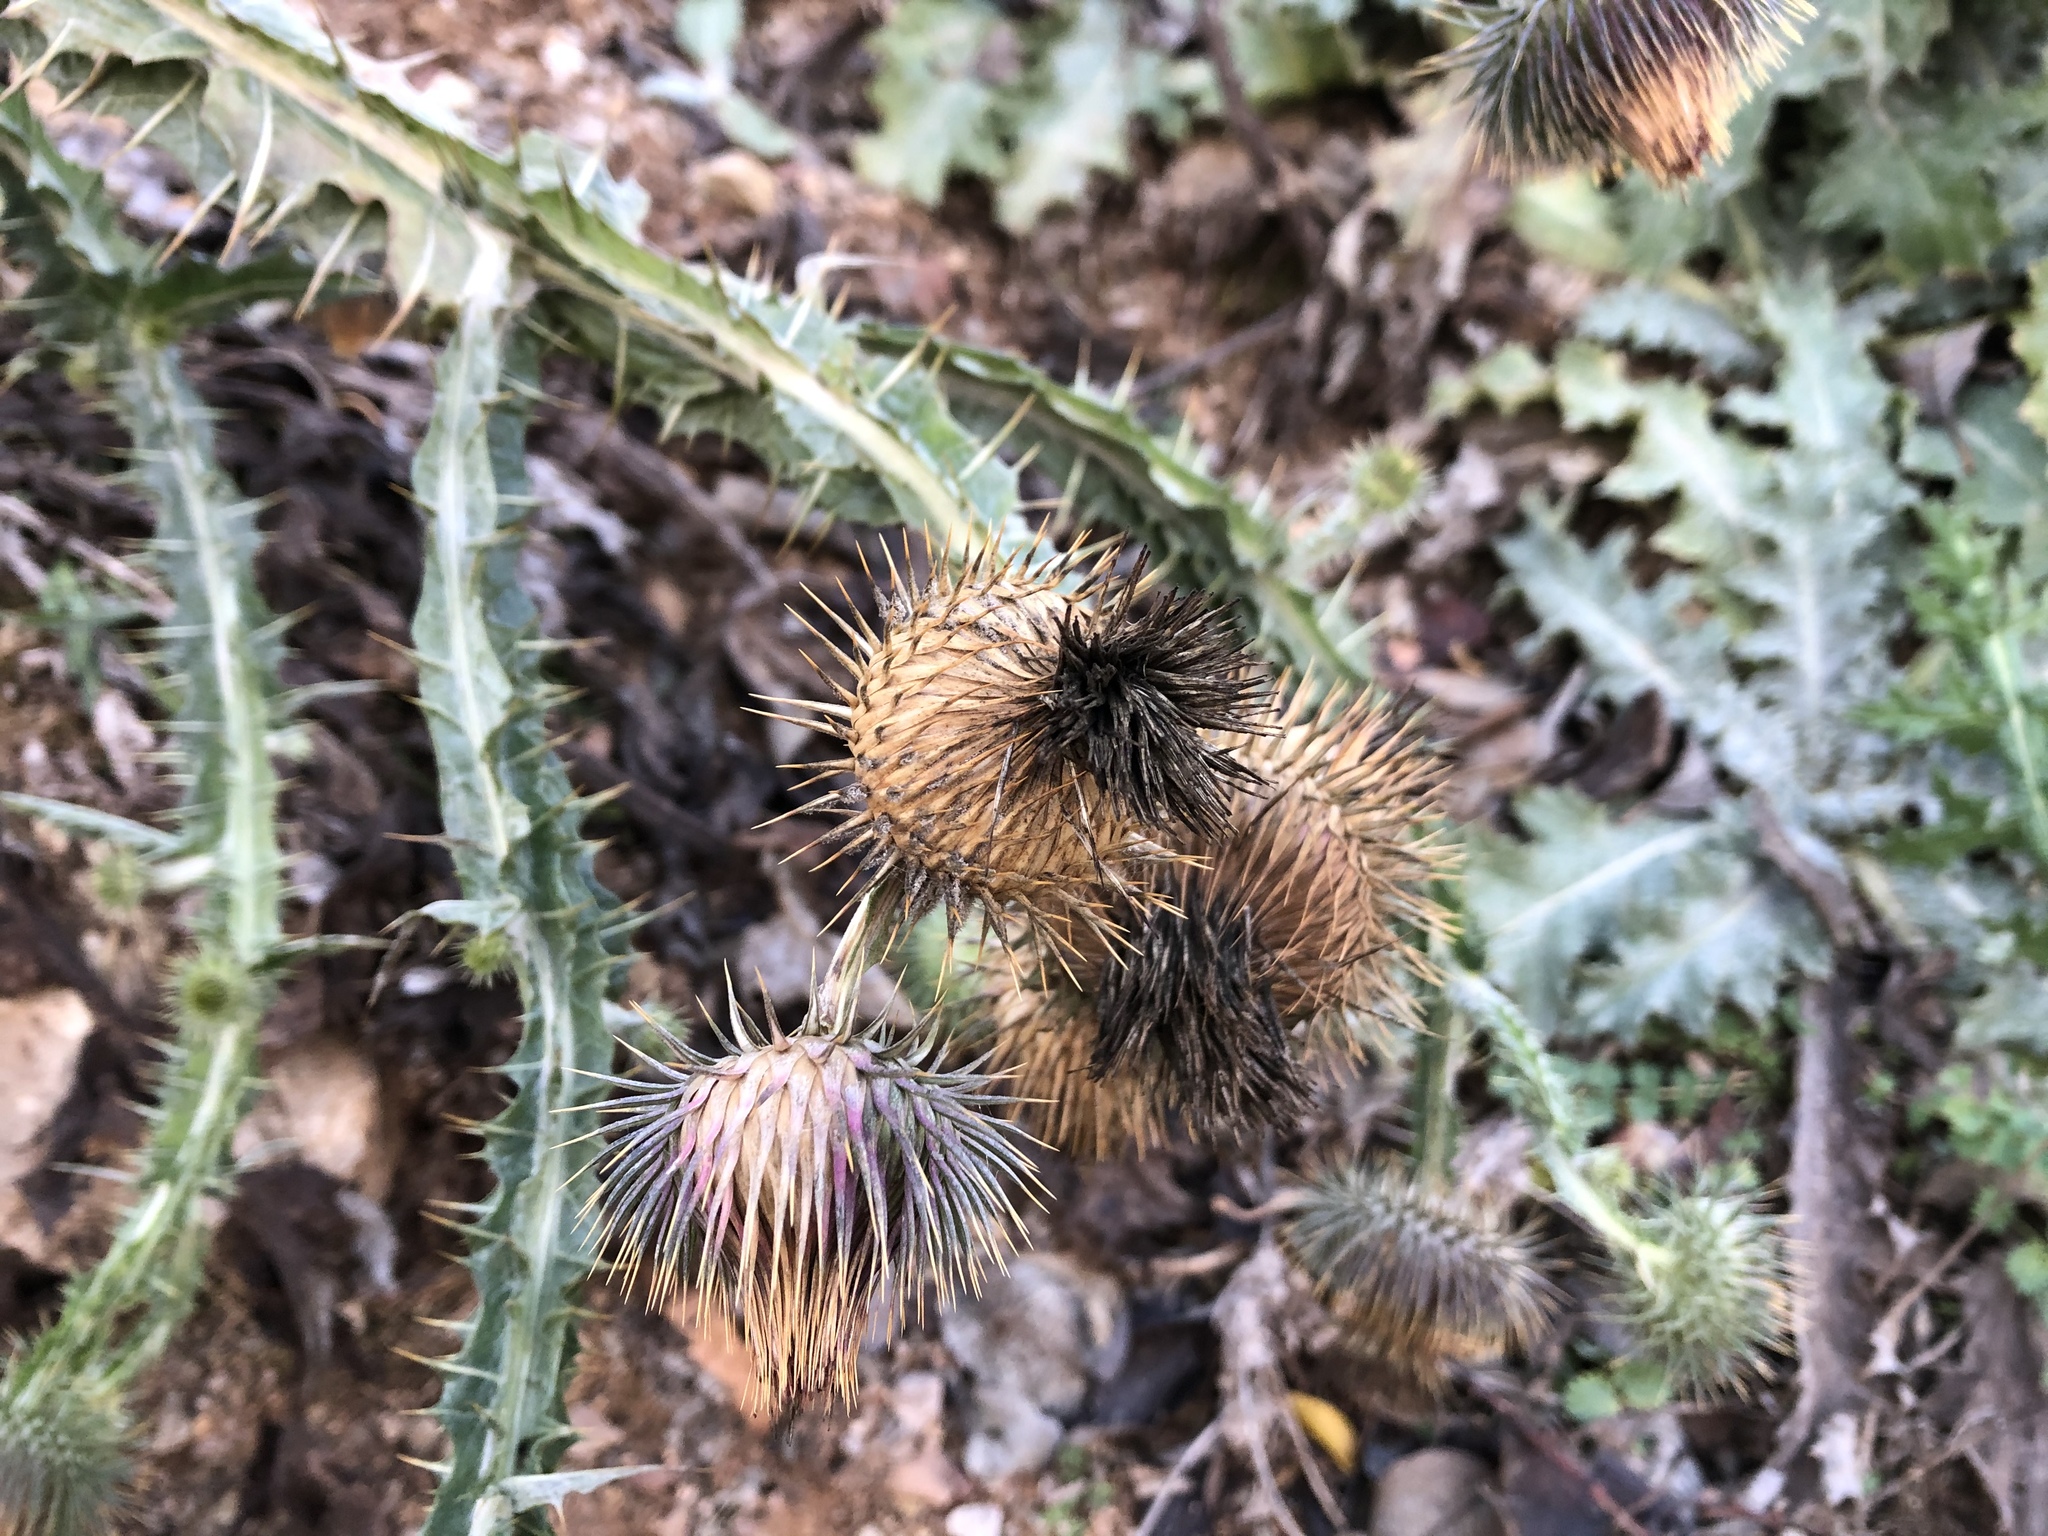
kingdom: Plantae
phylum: Tracheophyta
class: Magnoliopsida
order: Asterales
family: Asteraceae
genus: Onopordum
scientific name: Onopordum acanthium
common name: Scotch thistle
